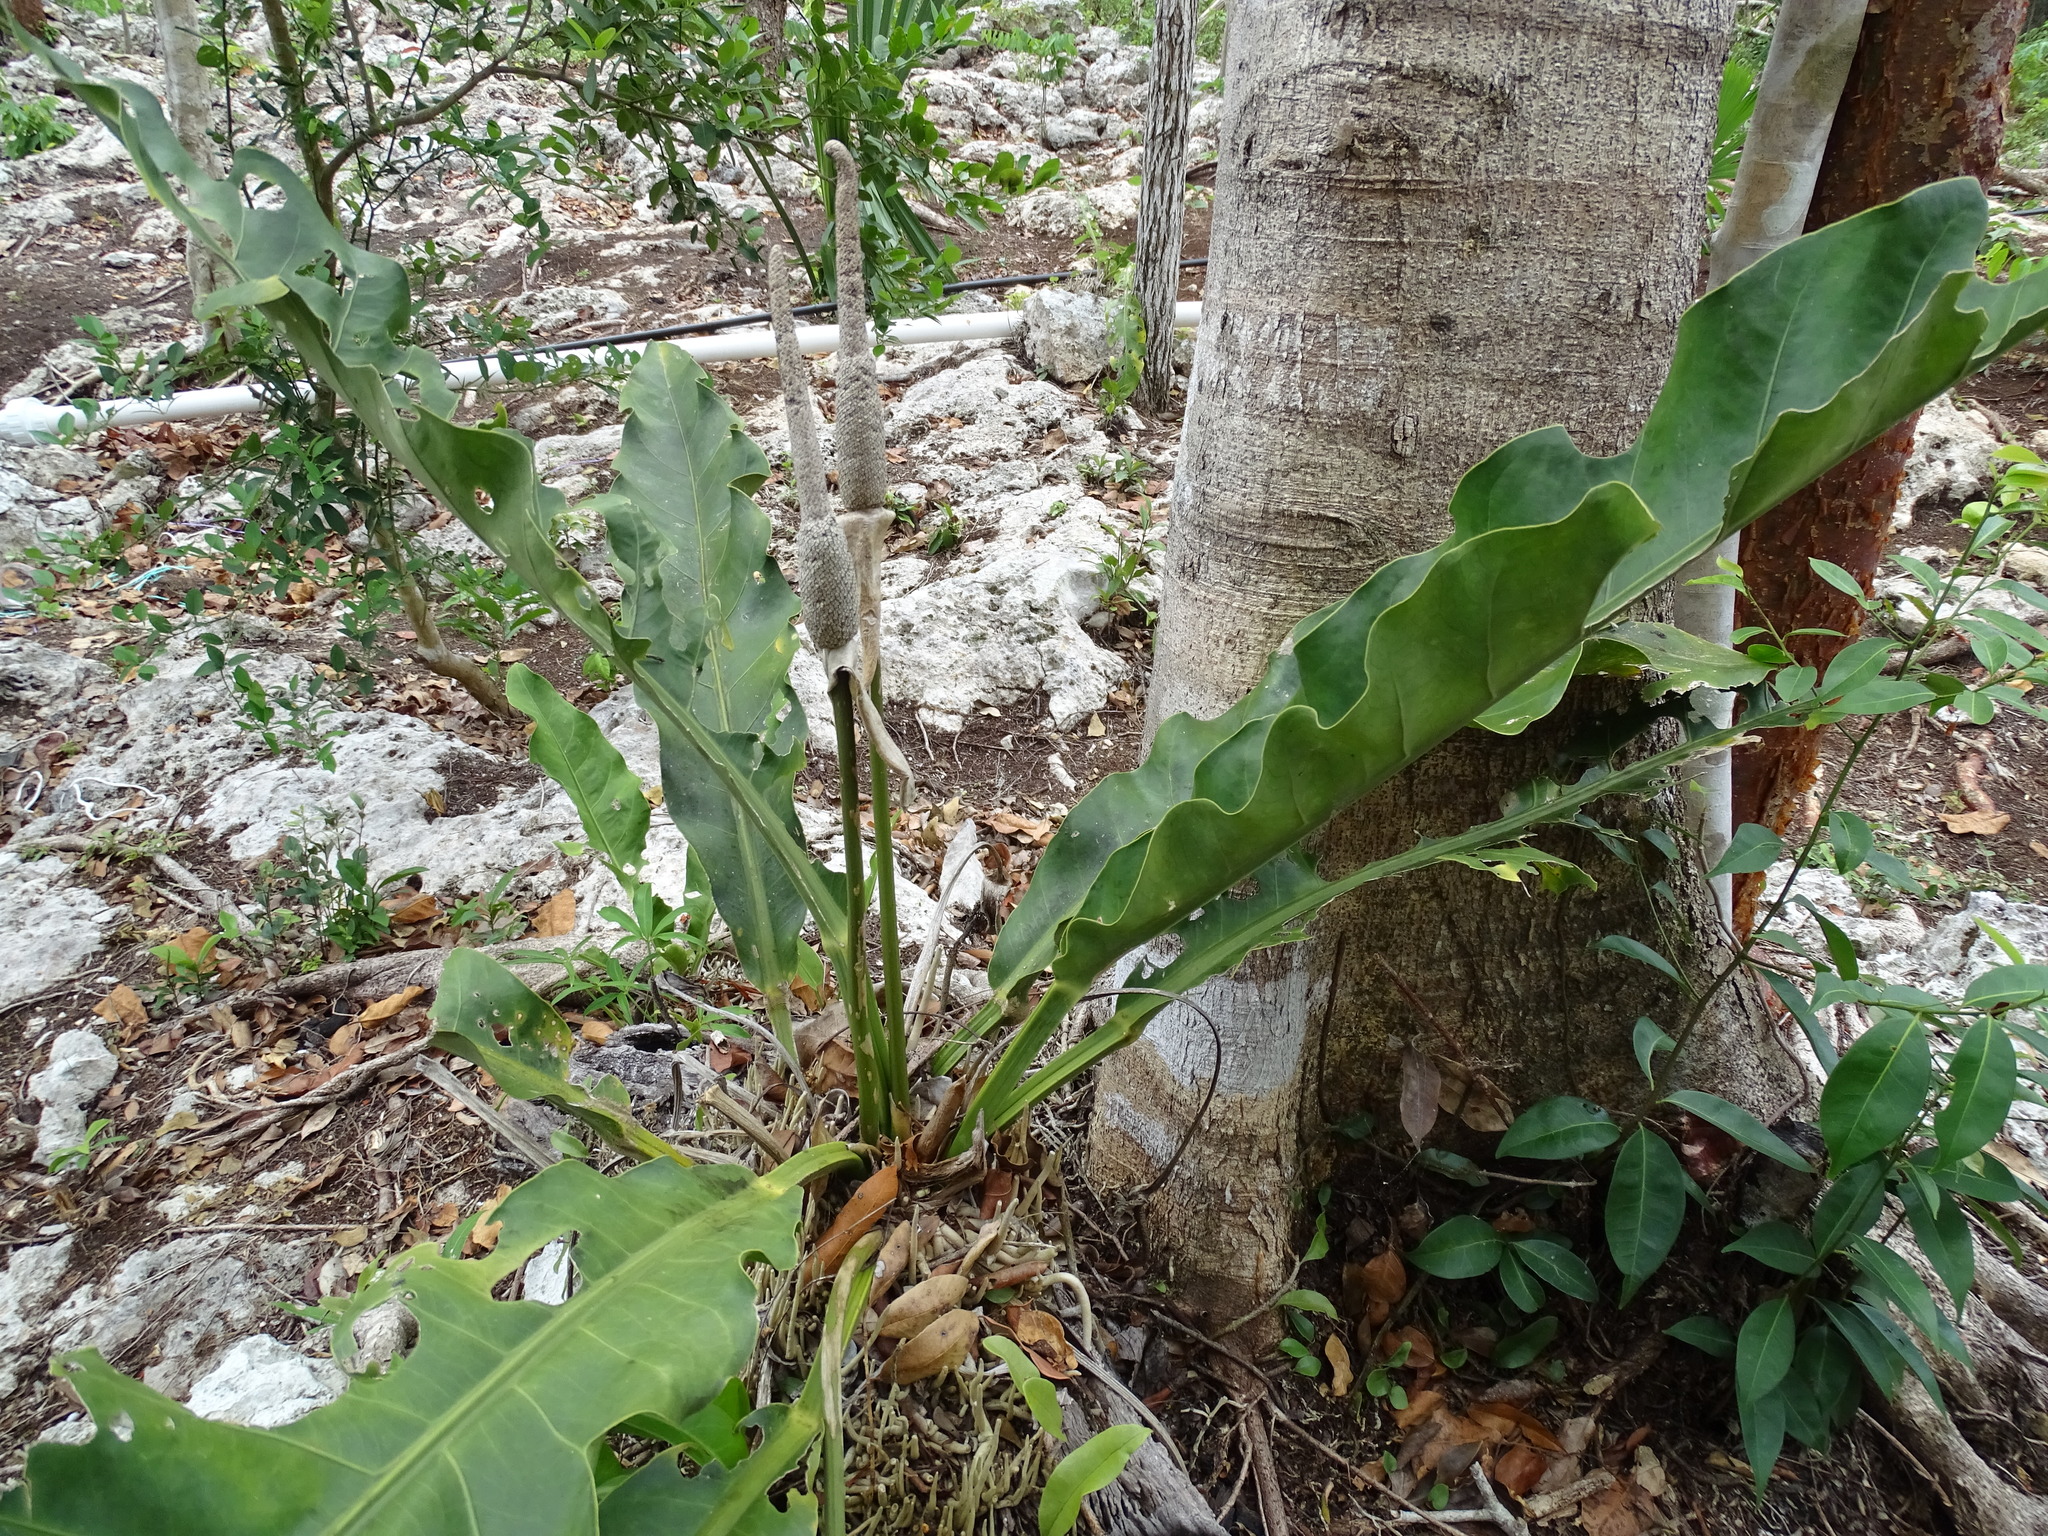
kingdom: Plantae
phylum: Tracheophyta
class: Liliopsida
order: Alismatales
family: Araceae
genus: Anthurium
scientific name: Anthurium schlechtendalii
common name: Laceleaf
